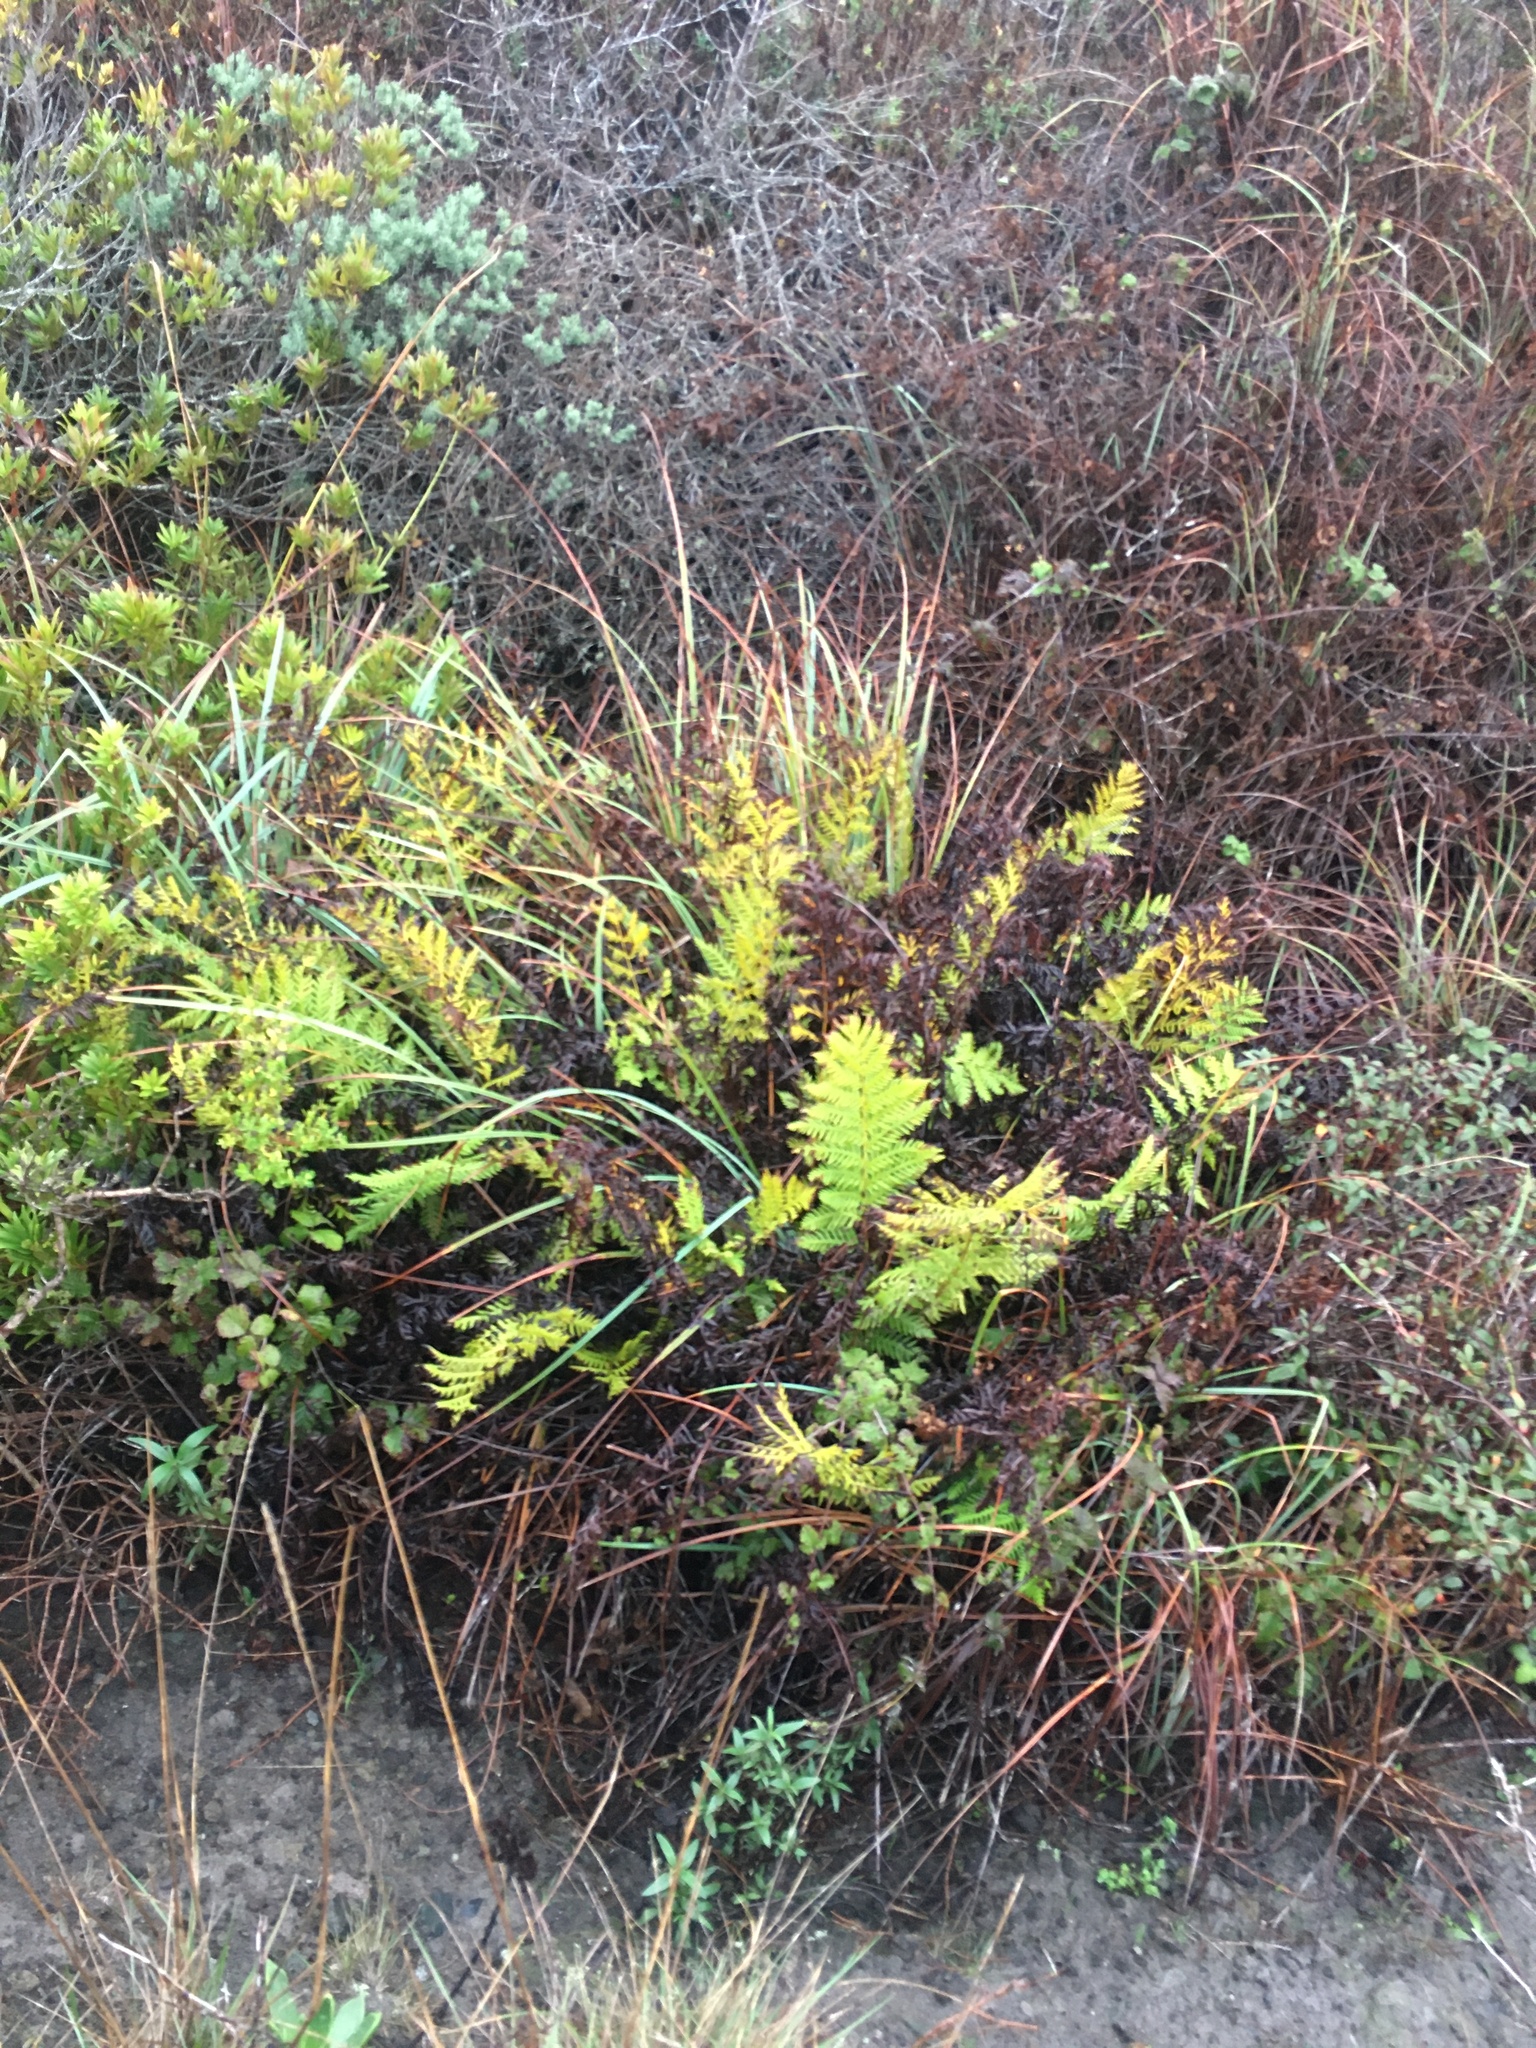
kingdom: Plantae
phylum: Tracheophyta
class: Polypodiopsida
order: Polypodiales
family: Blechnaceae
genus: Woodwardia
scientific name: Woodwardia fimbriata
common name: Giant chain fern
